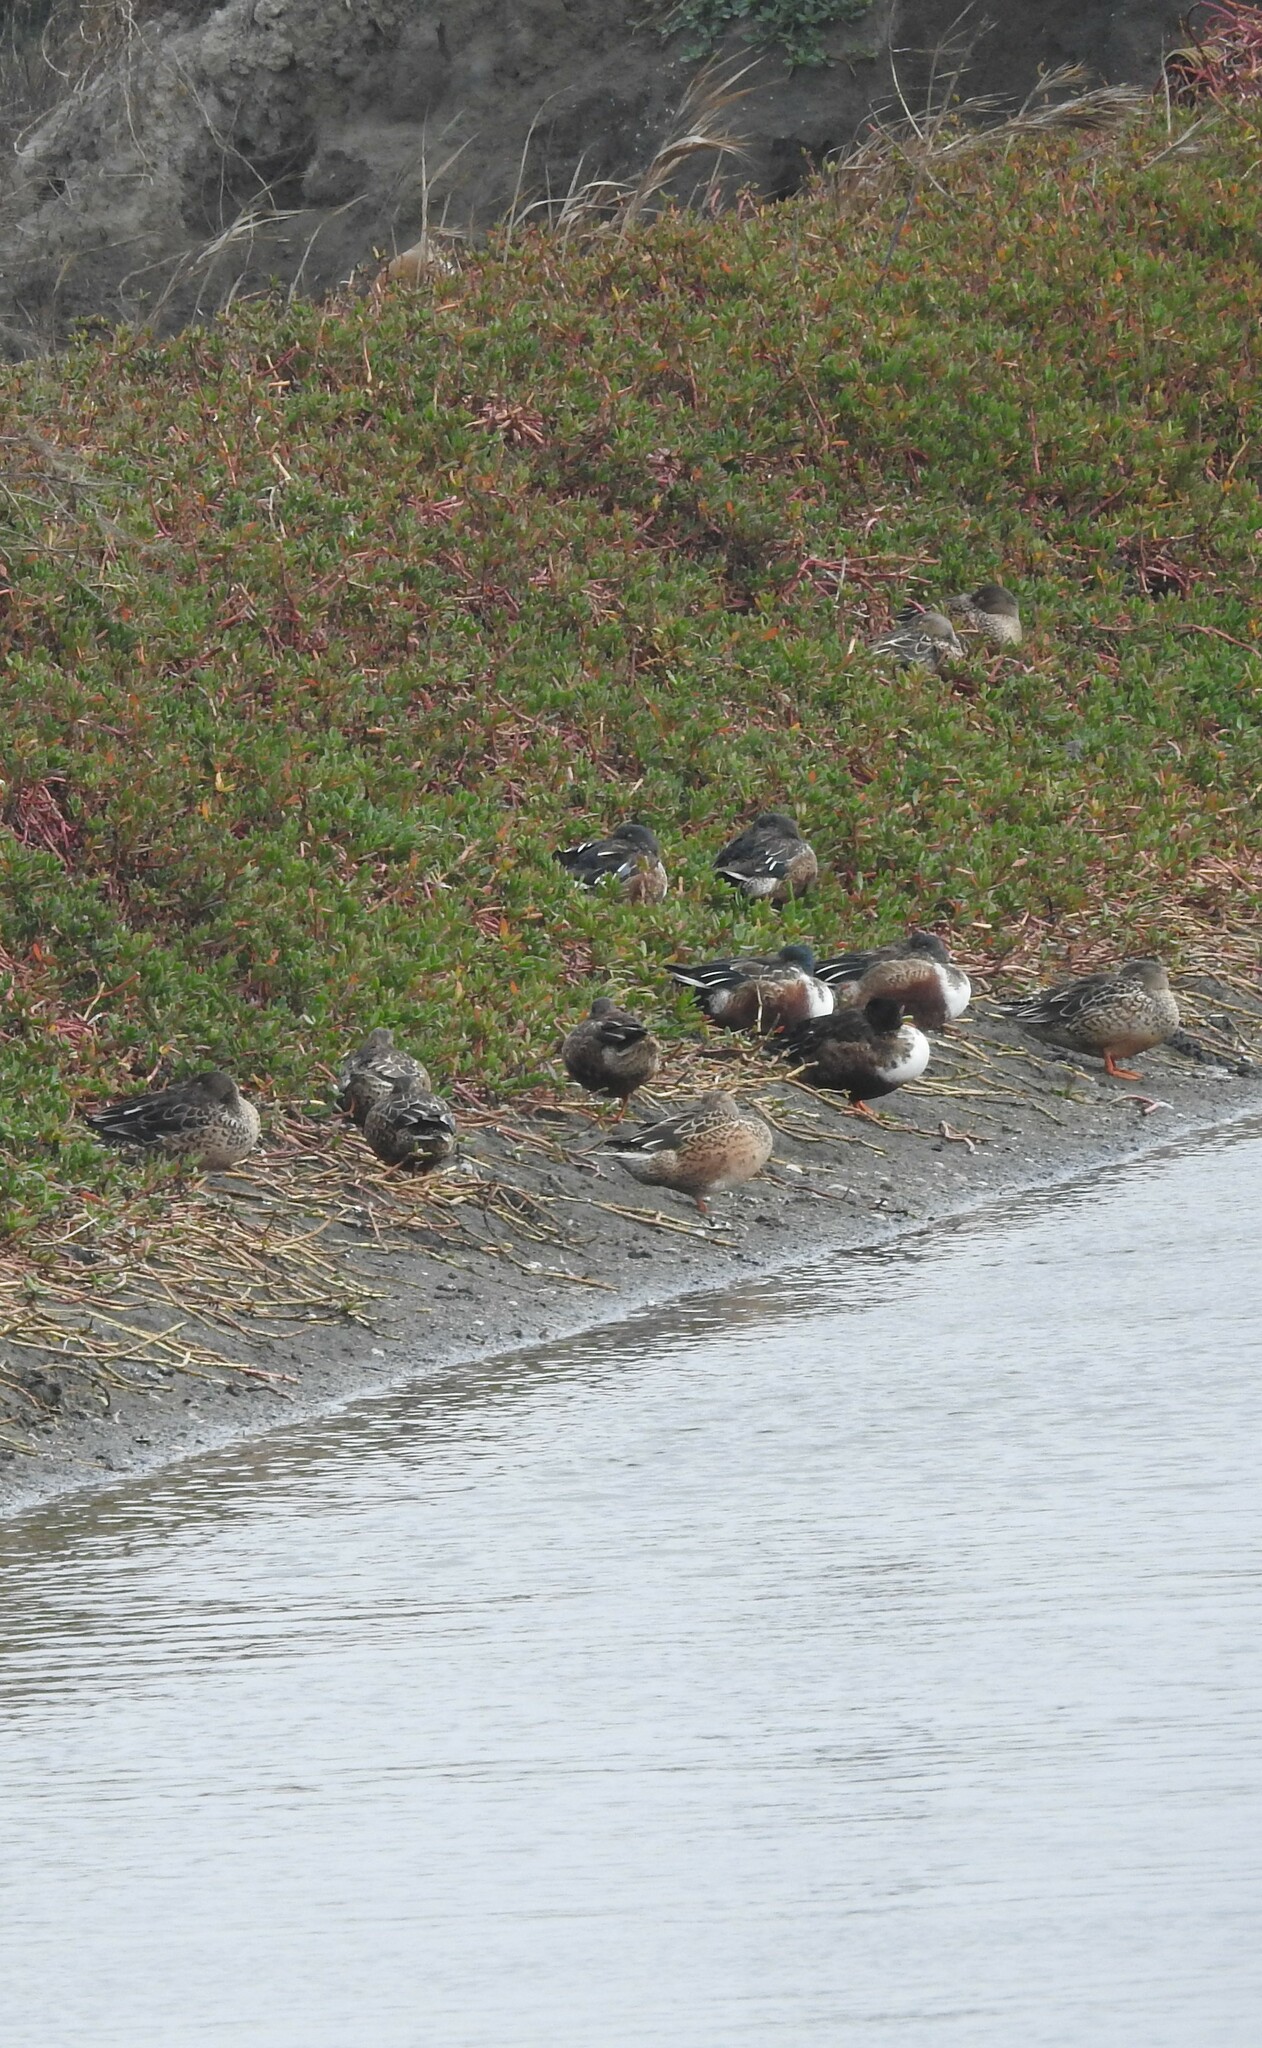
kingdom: Animalia
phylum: Chordata
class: Aves
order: Anseriformes
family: Anatidae
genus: Spatula
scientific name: Spatula clypeata
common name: Northern shoveler
